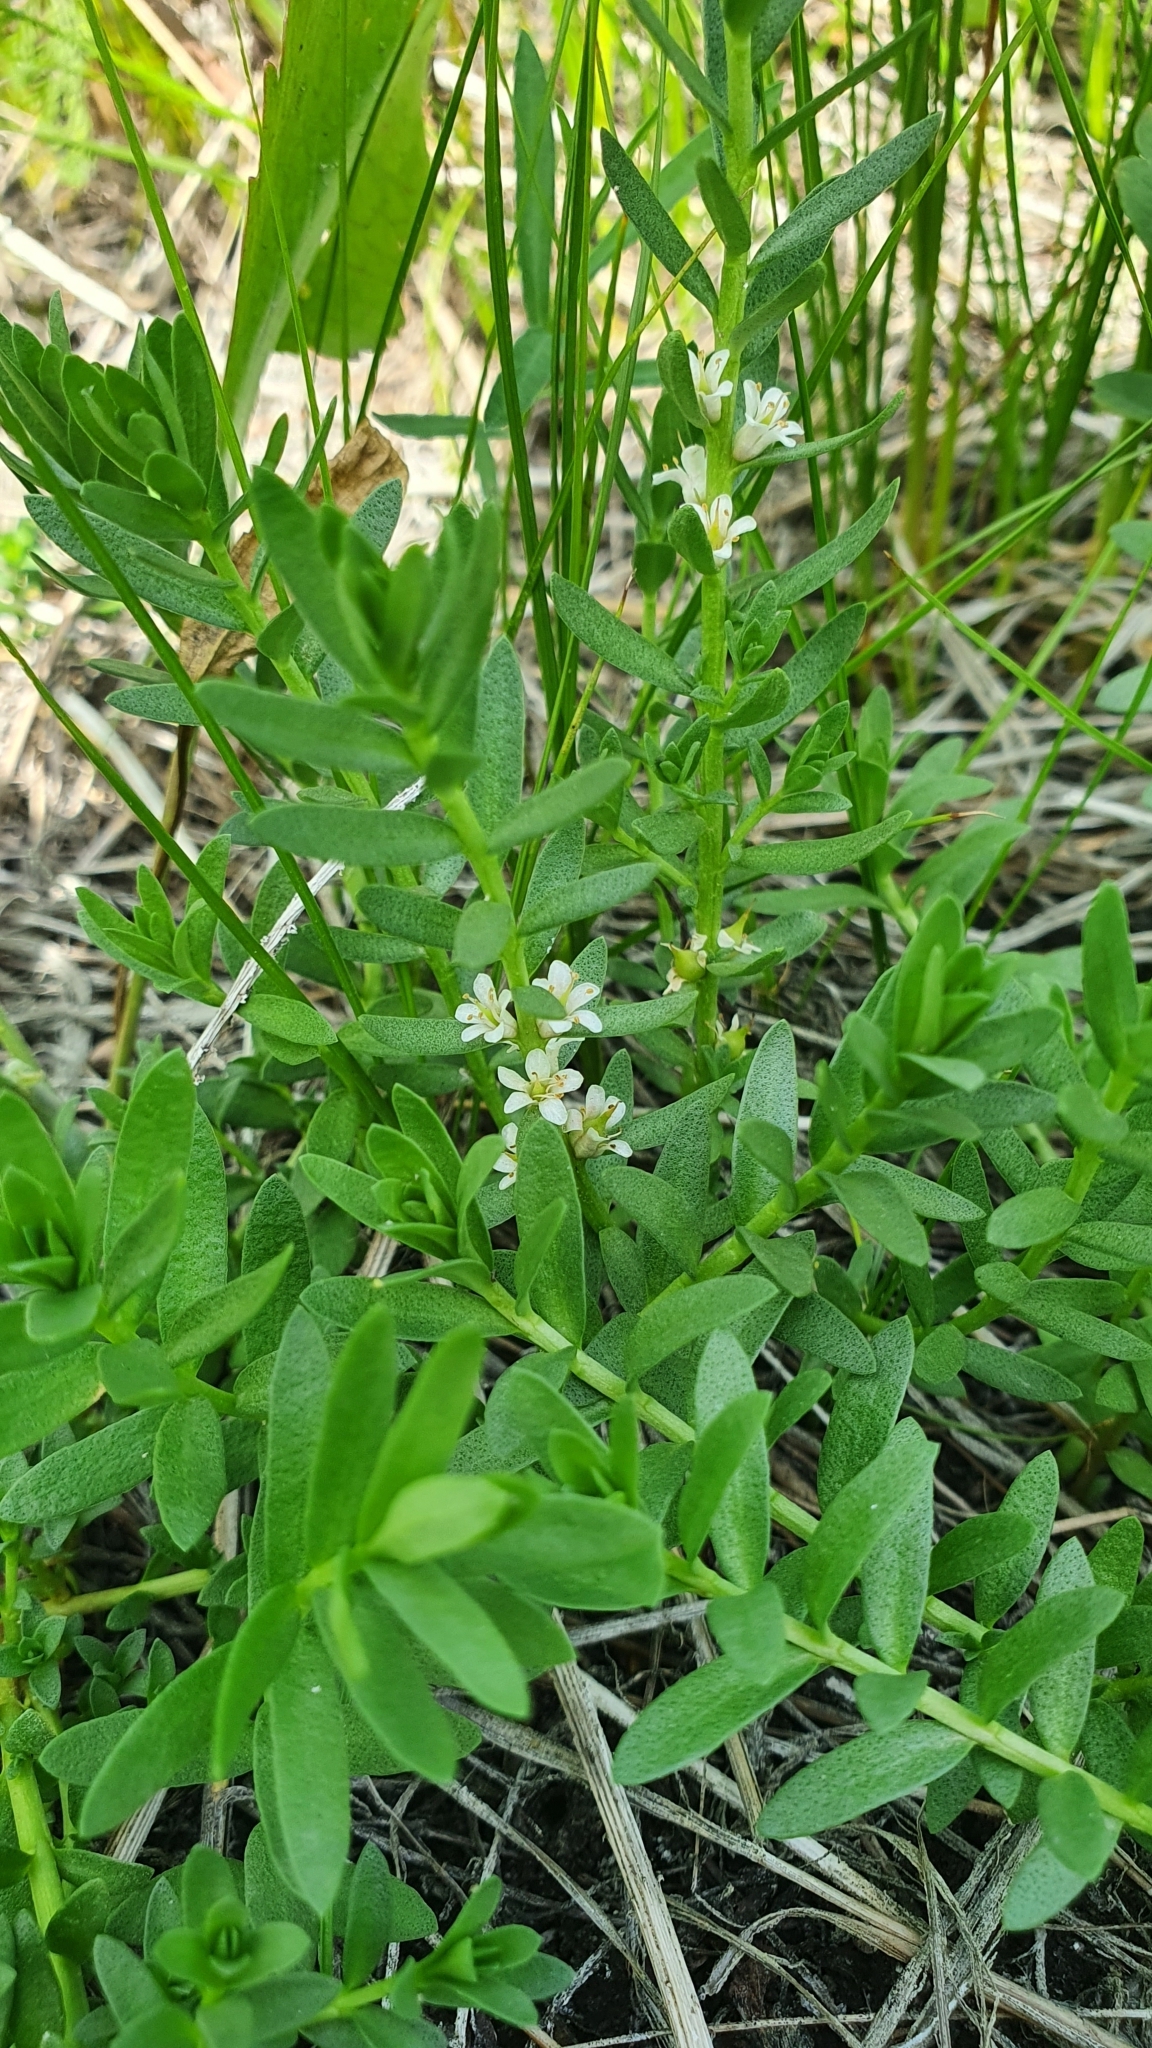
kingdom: Plantae
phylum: Tracheophyta
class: Magnoliopsida
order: Ericales
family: Primulaceae
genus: Lysimachia
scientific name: Lysimachia maritima
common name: Sea milkwort
